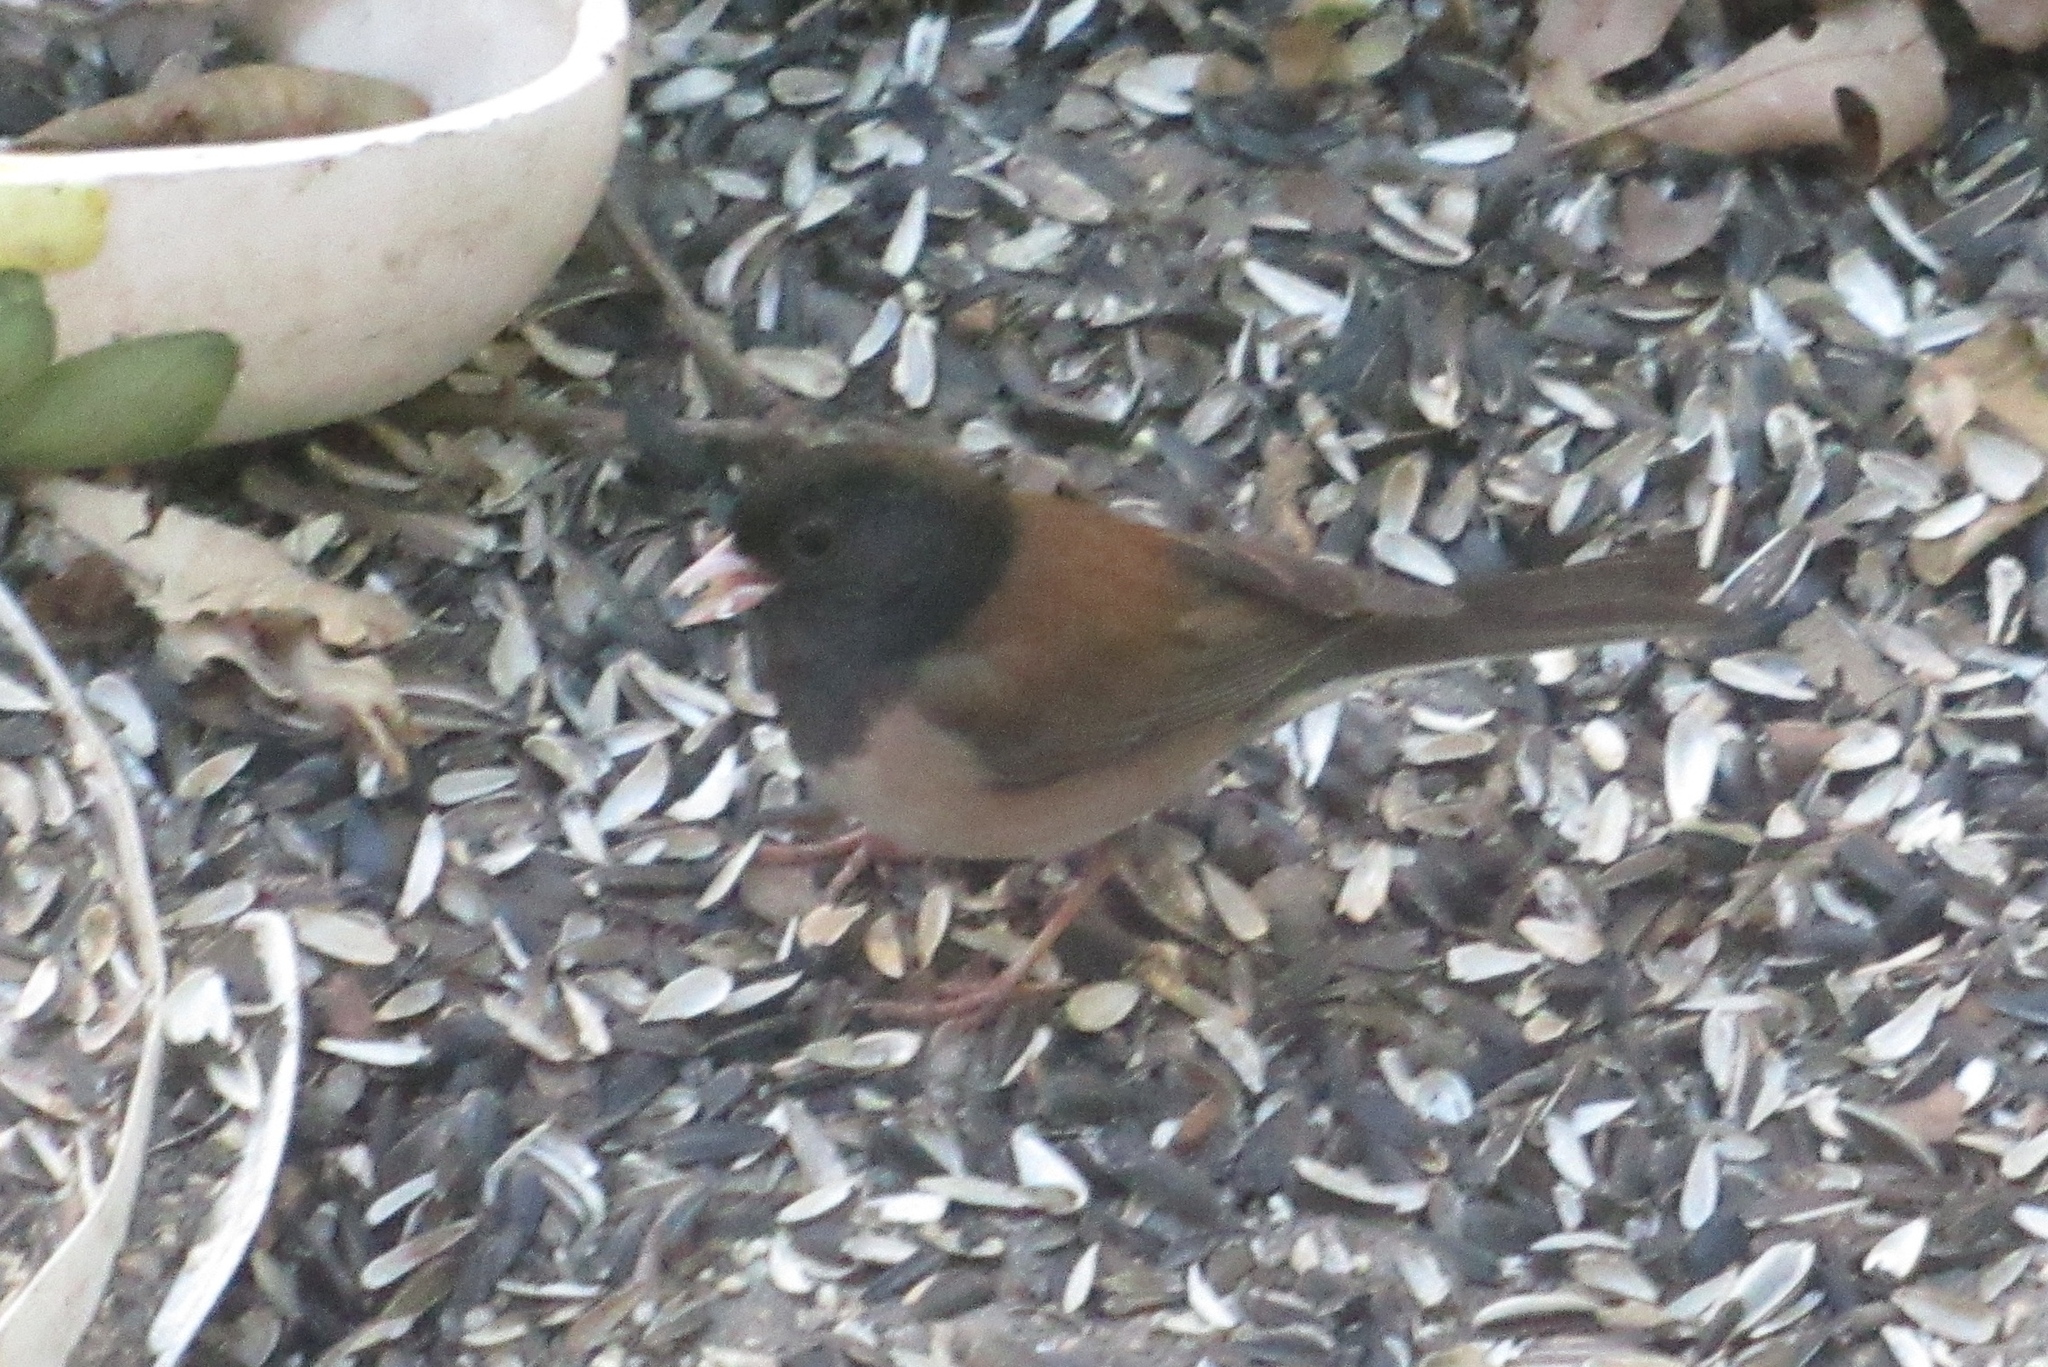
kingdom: Animalia
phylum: Chordata
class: Aves
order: Passeriformes
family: Passerellidae
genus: Junco
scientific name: Junco hyemalis
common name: Dark-eyed junco
